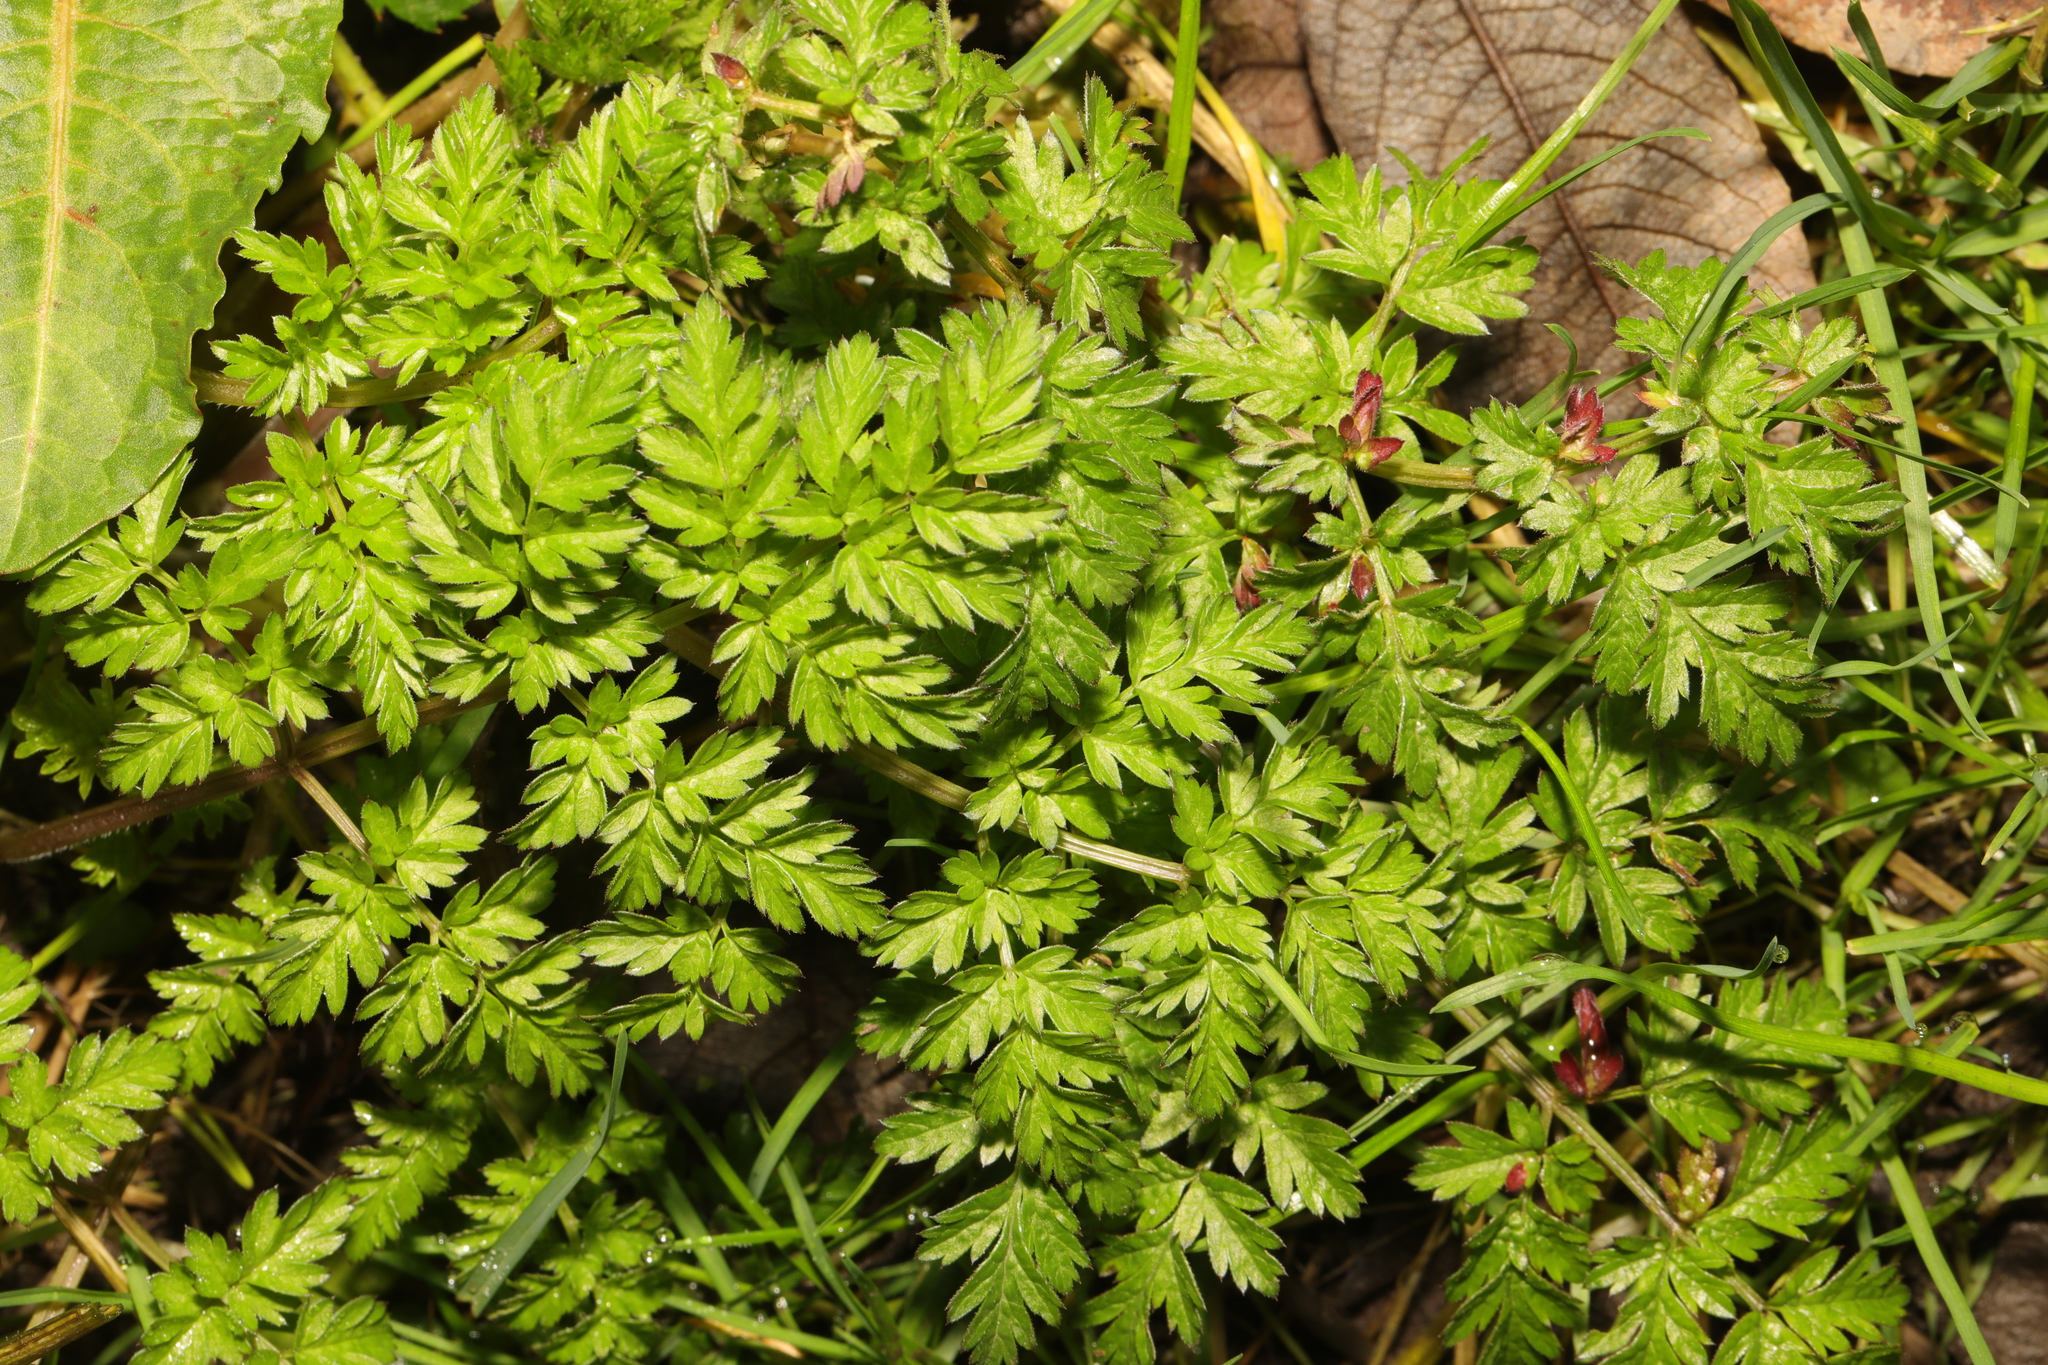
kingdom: Plantae
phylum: Tracheophyta
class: Magnoliopsida
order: Apiales
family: Apiaceae
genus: Anthriscus
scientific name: Anthriscus sylvestris
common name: Cow parsley
